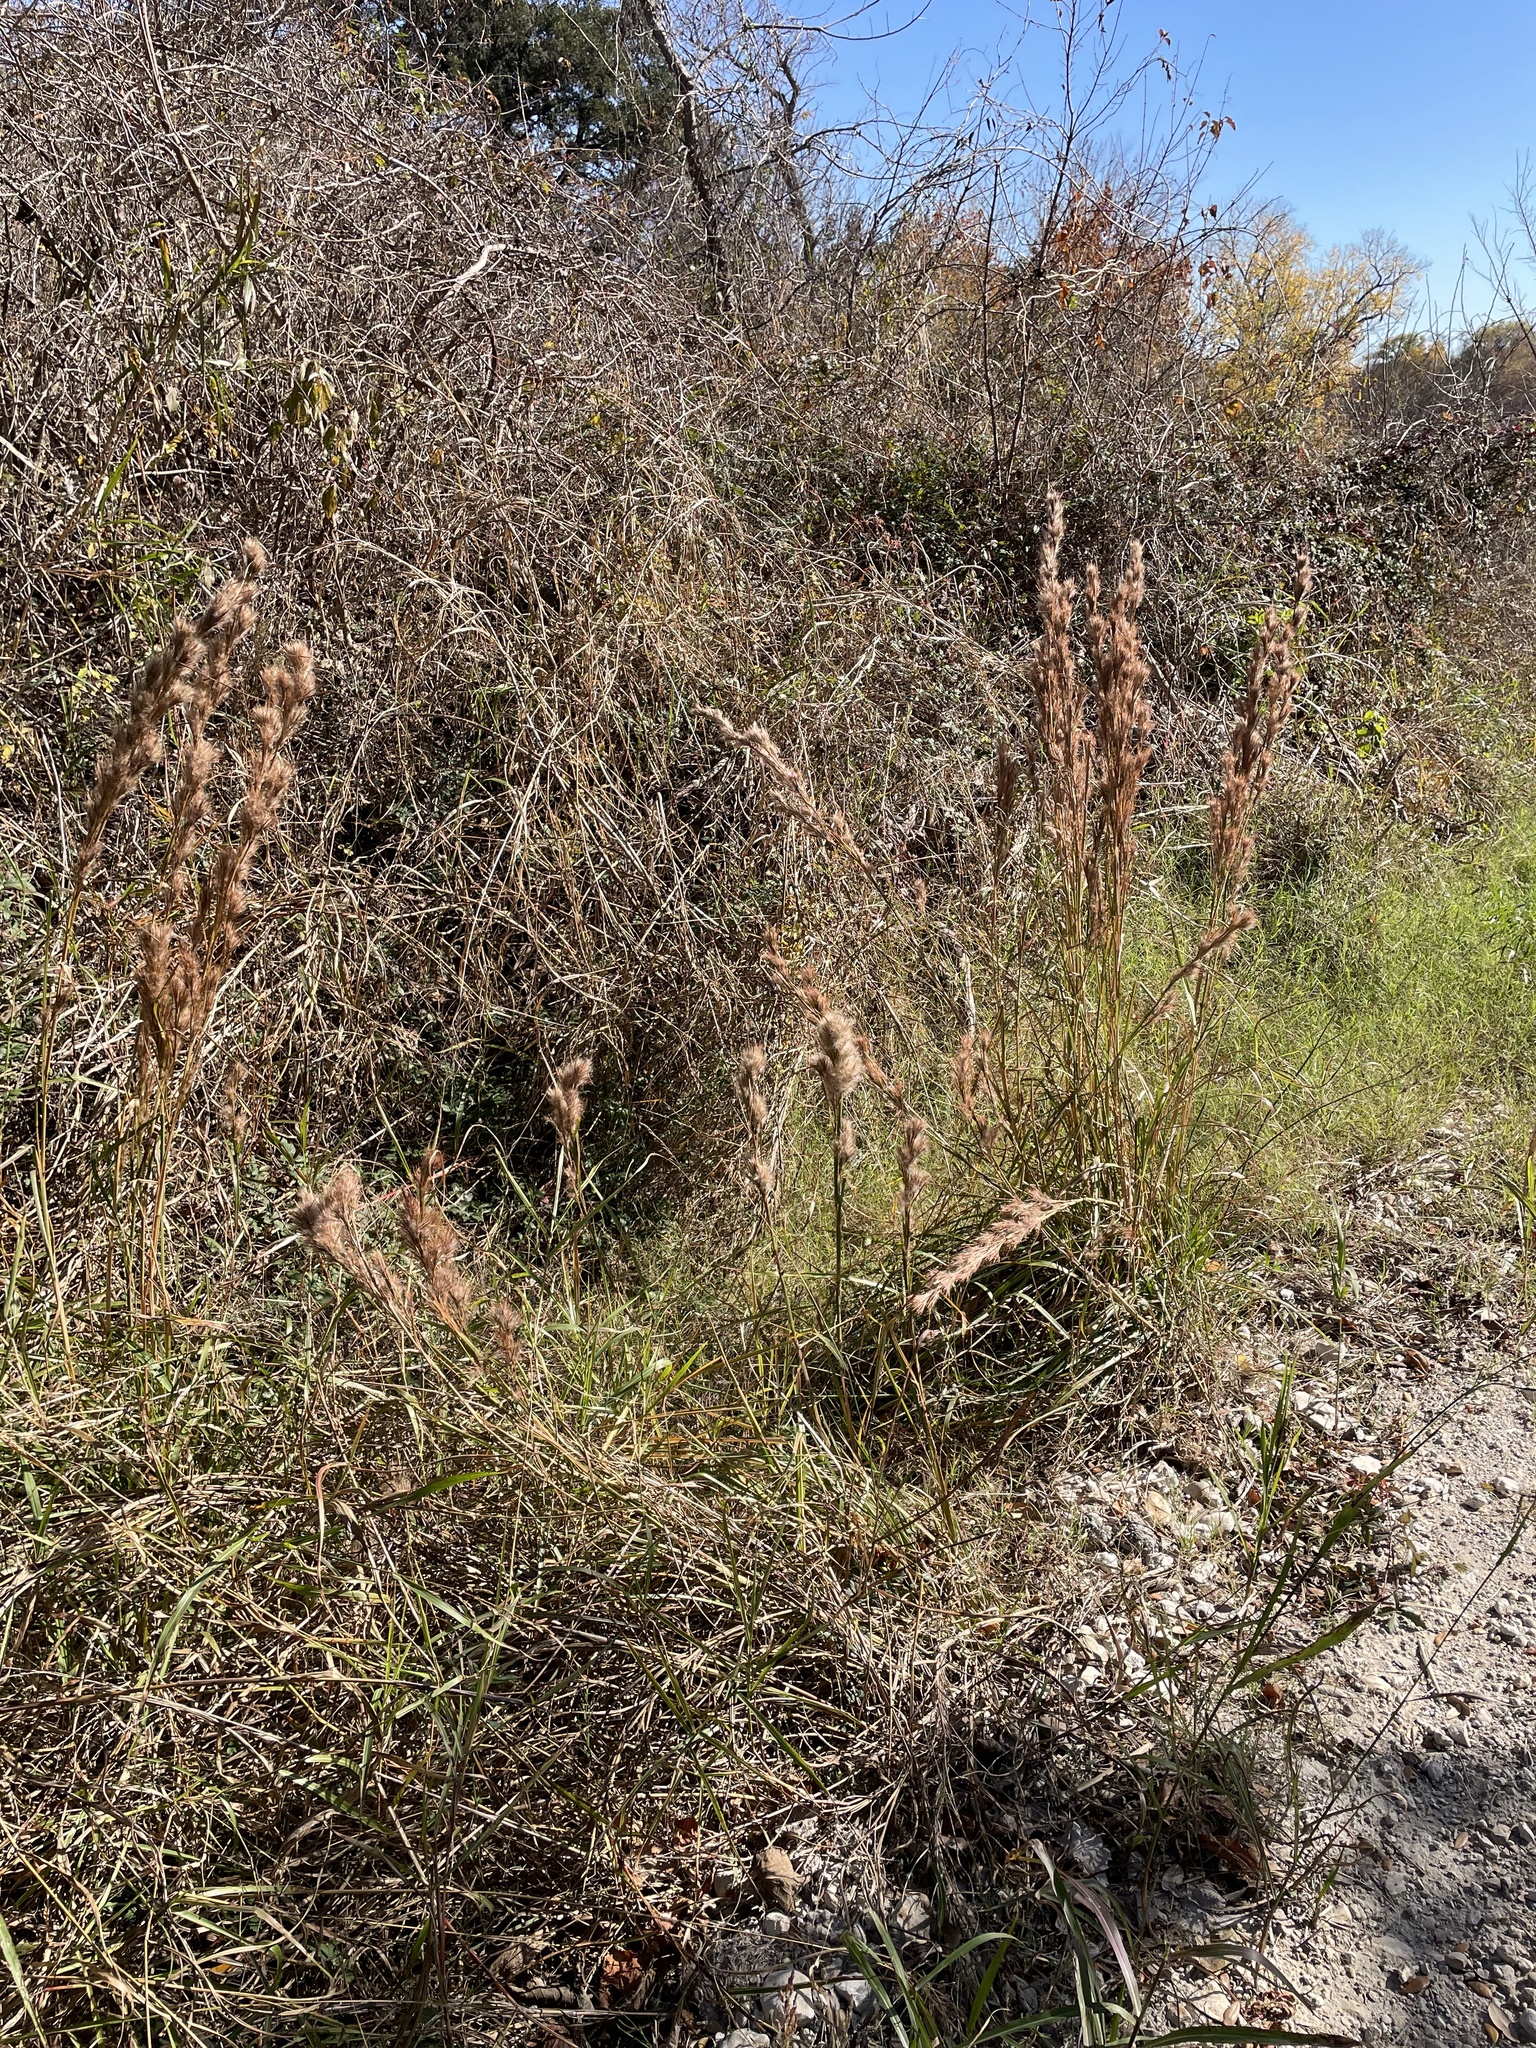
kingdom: Plantae
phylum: Tracheophyta
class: Liliopsida
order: Poales
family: Poaceae
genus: Andropogon
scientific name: Andropogon tenuispatheus
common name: Bushy bluestem
